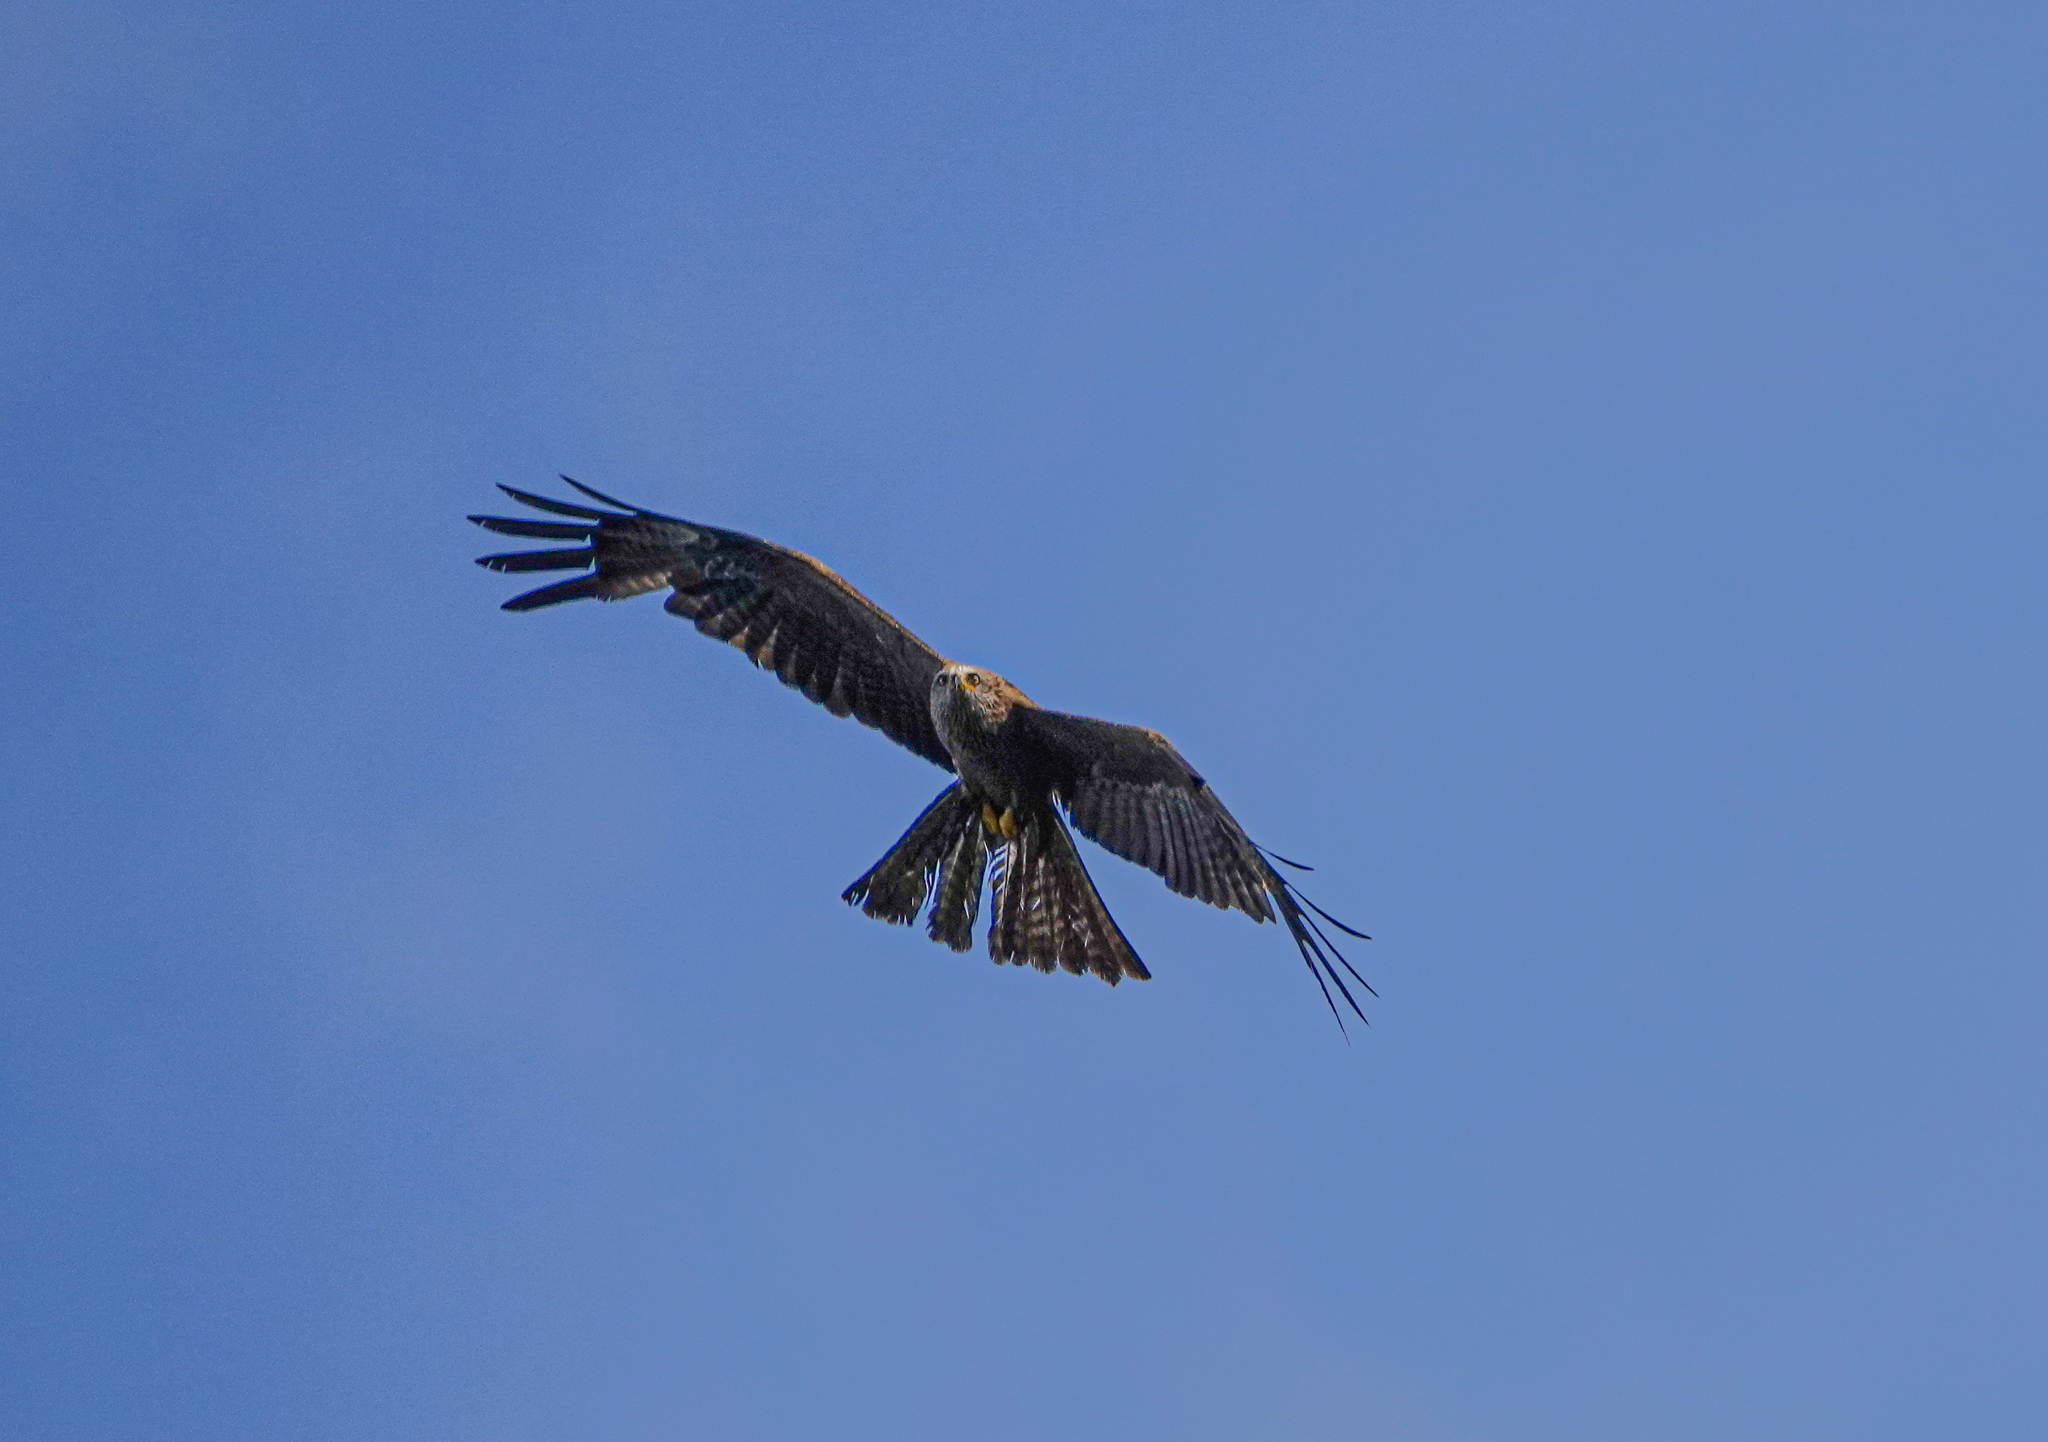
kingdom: Animalia
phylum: Chordata
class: Aves
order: Accipitriformes
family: Accipitridae
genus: Milvus
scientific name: Milvus migrans
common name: Black kite
